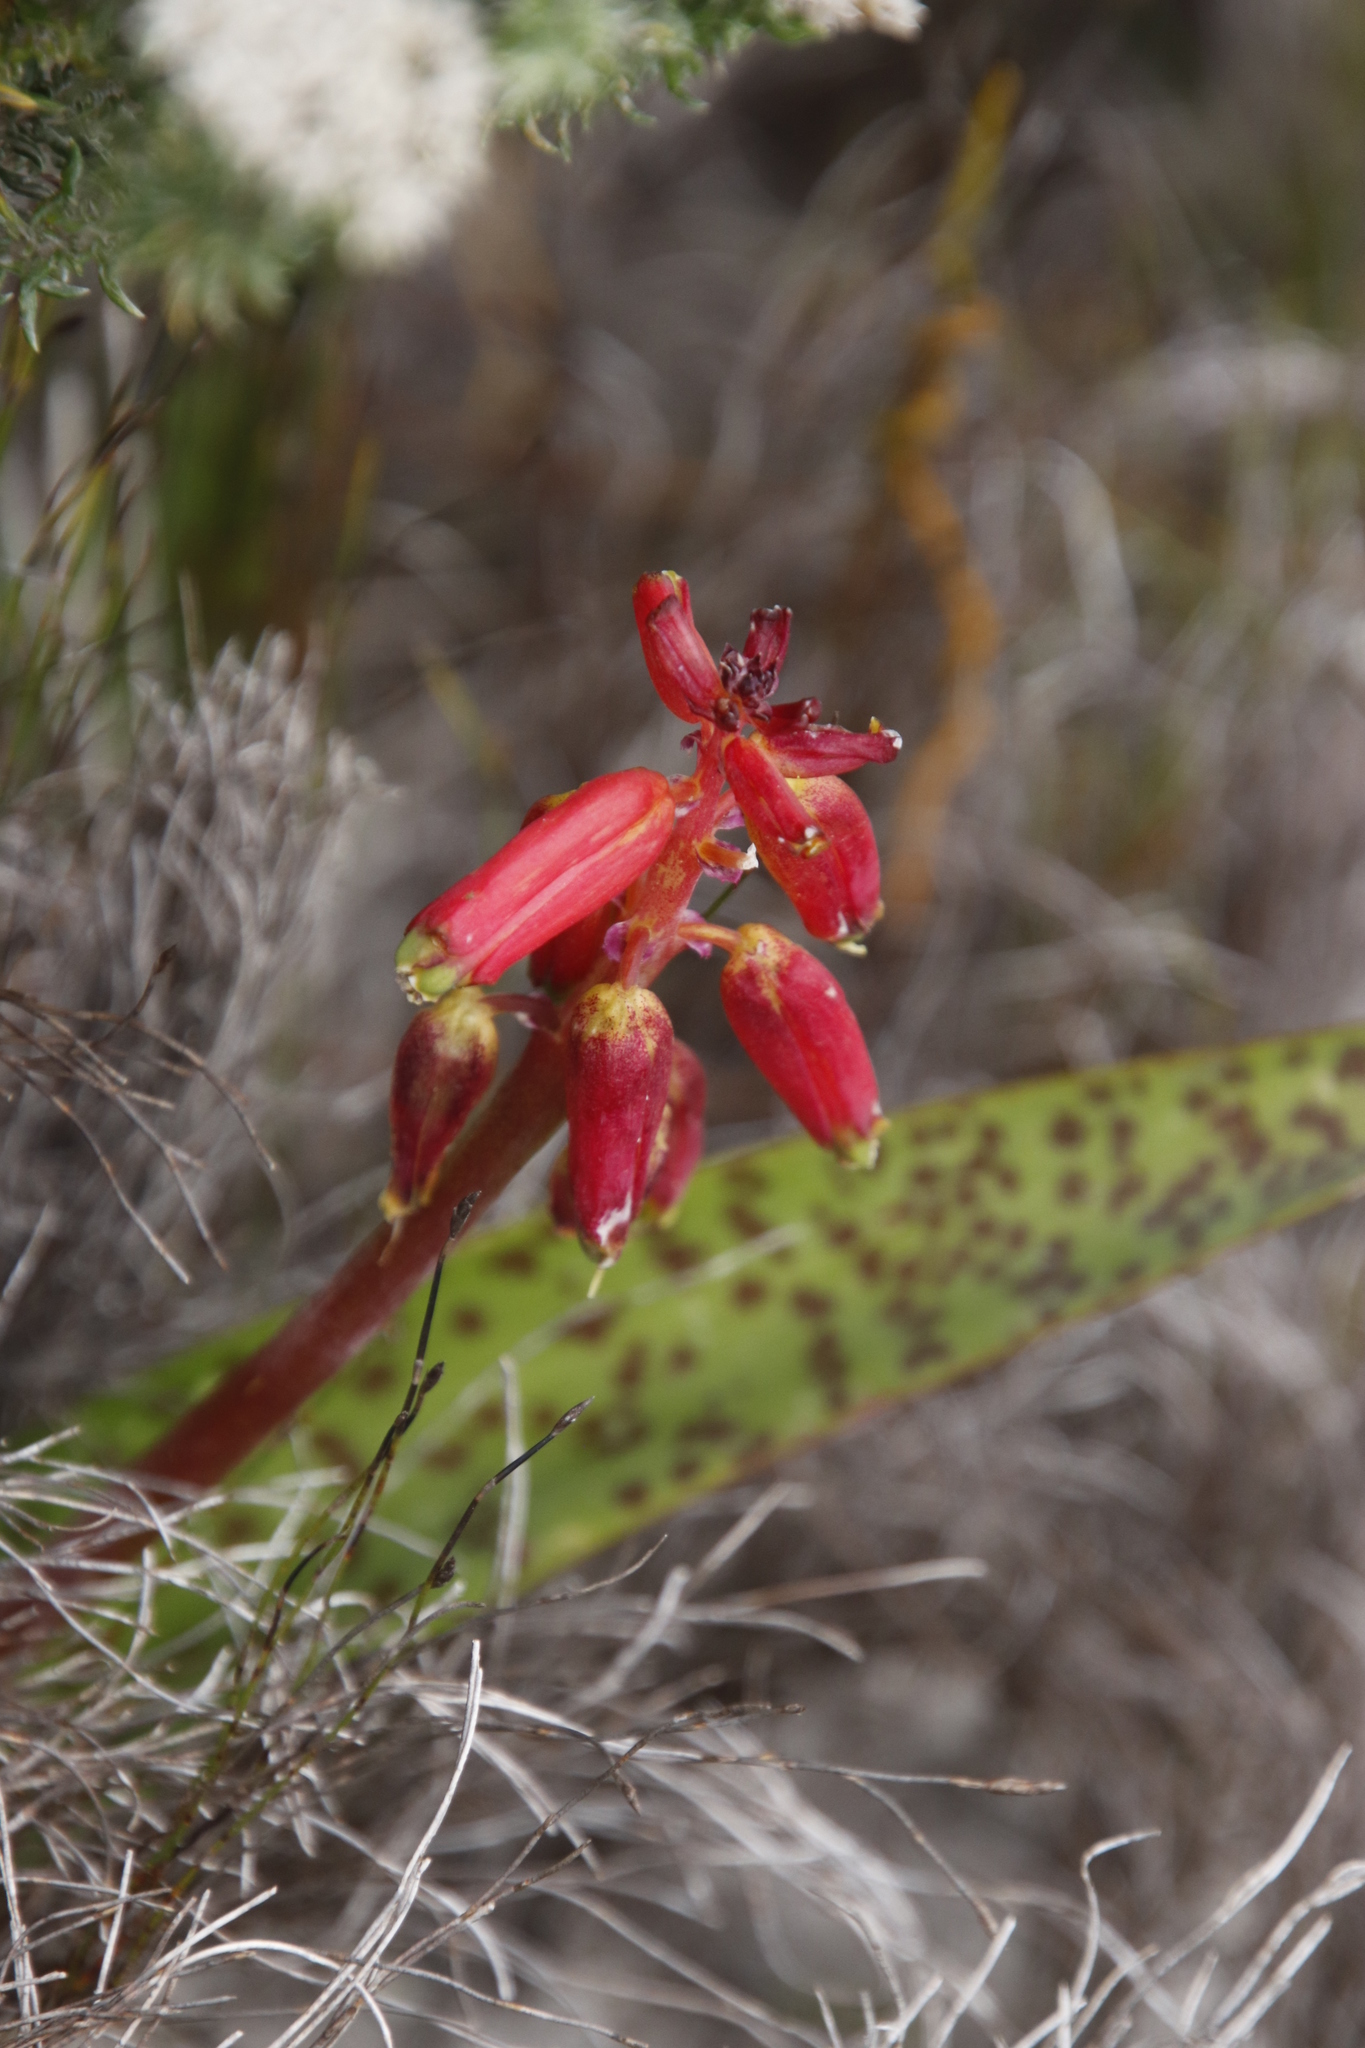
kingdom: Plantae
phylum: Tracheophyta
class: Liliopsida
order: Asparagales
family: Asparagaceae
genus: Lachenalia
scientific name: Lachenalia bulbifera
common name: Red lachenalia
